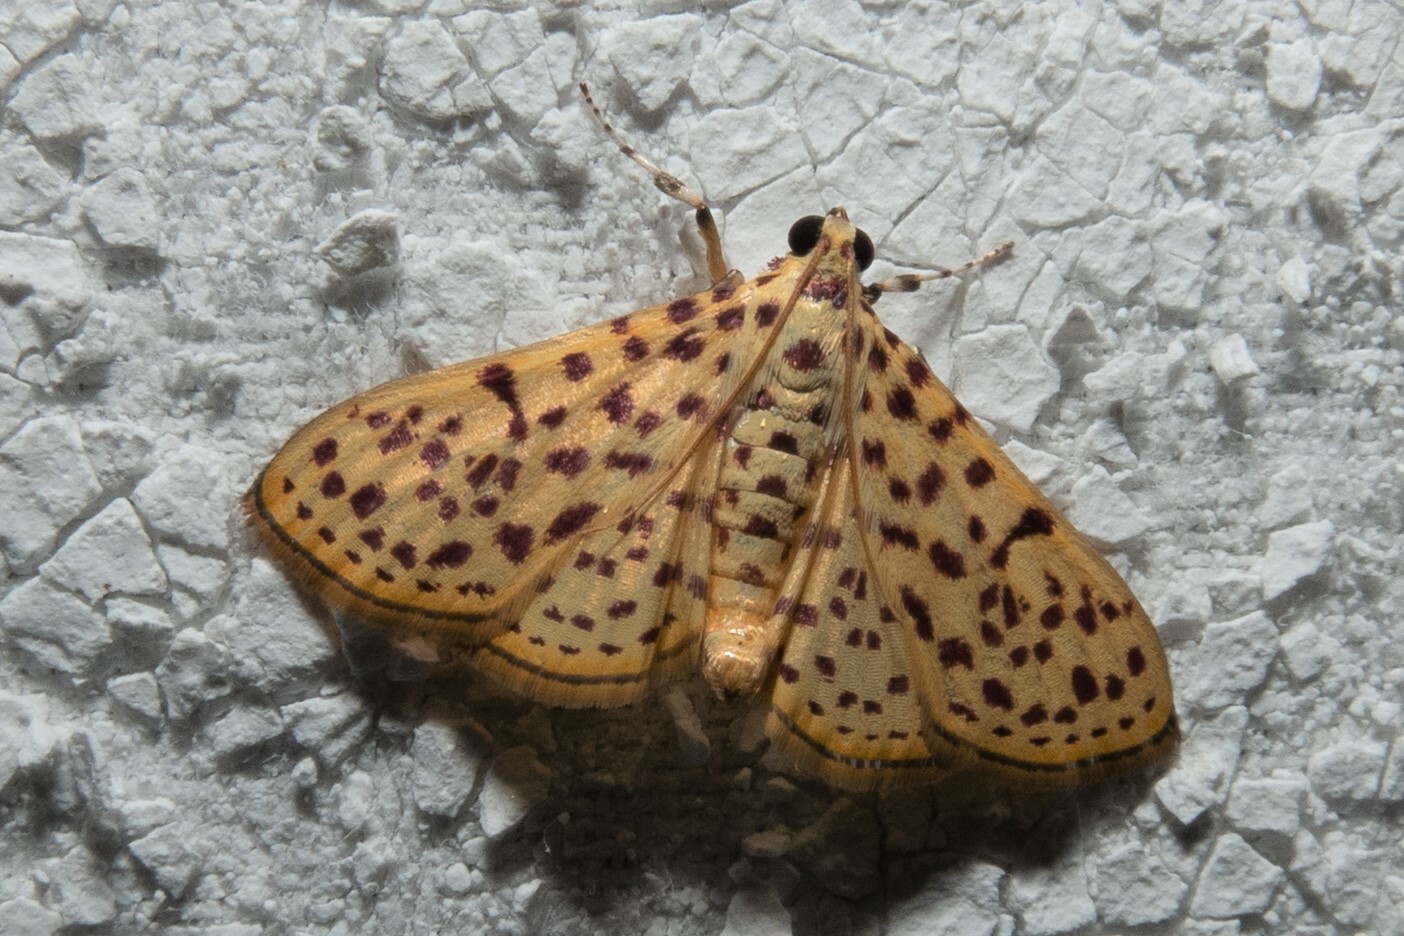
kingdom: Animalia
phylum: Arthropoda
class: Insecta
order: Lepidoptera
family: Crambidae
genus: Polygrammodes
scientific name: Polygrammodes elevata
